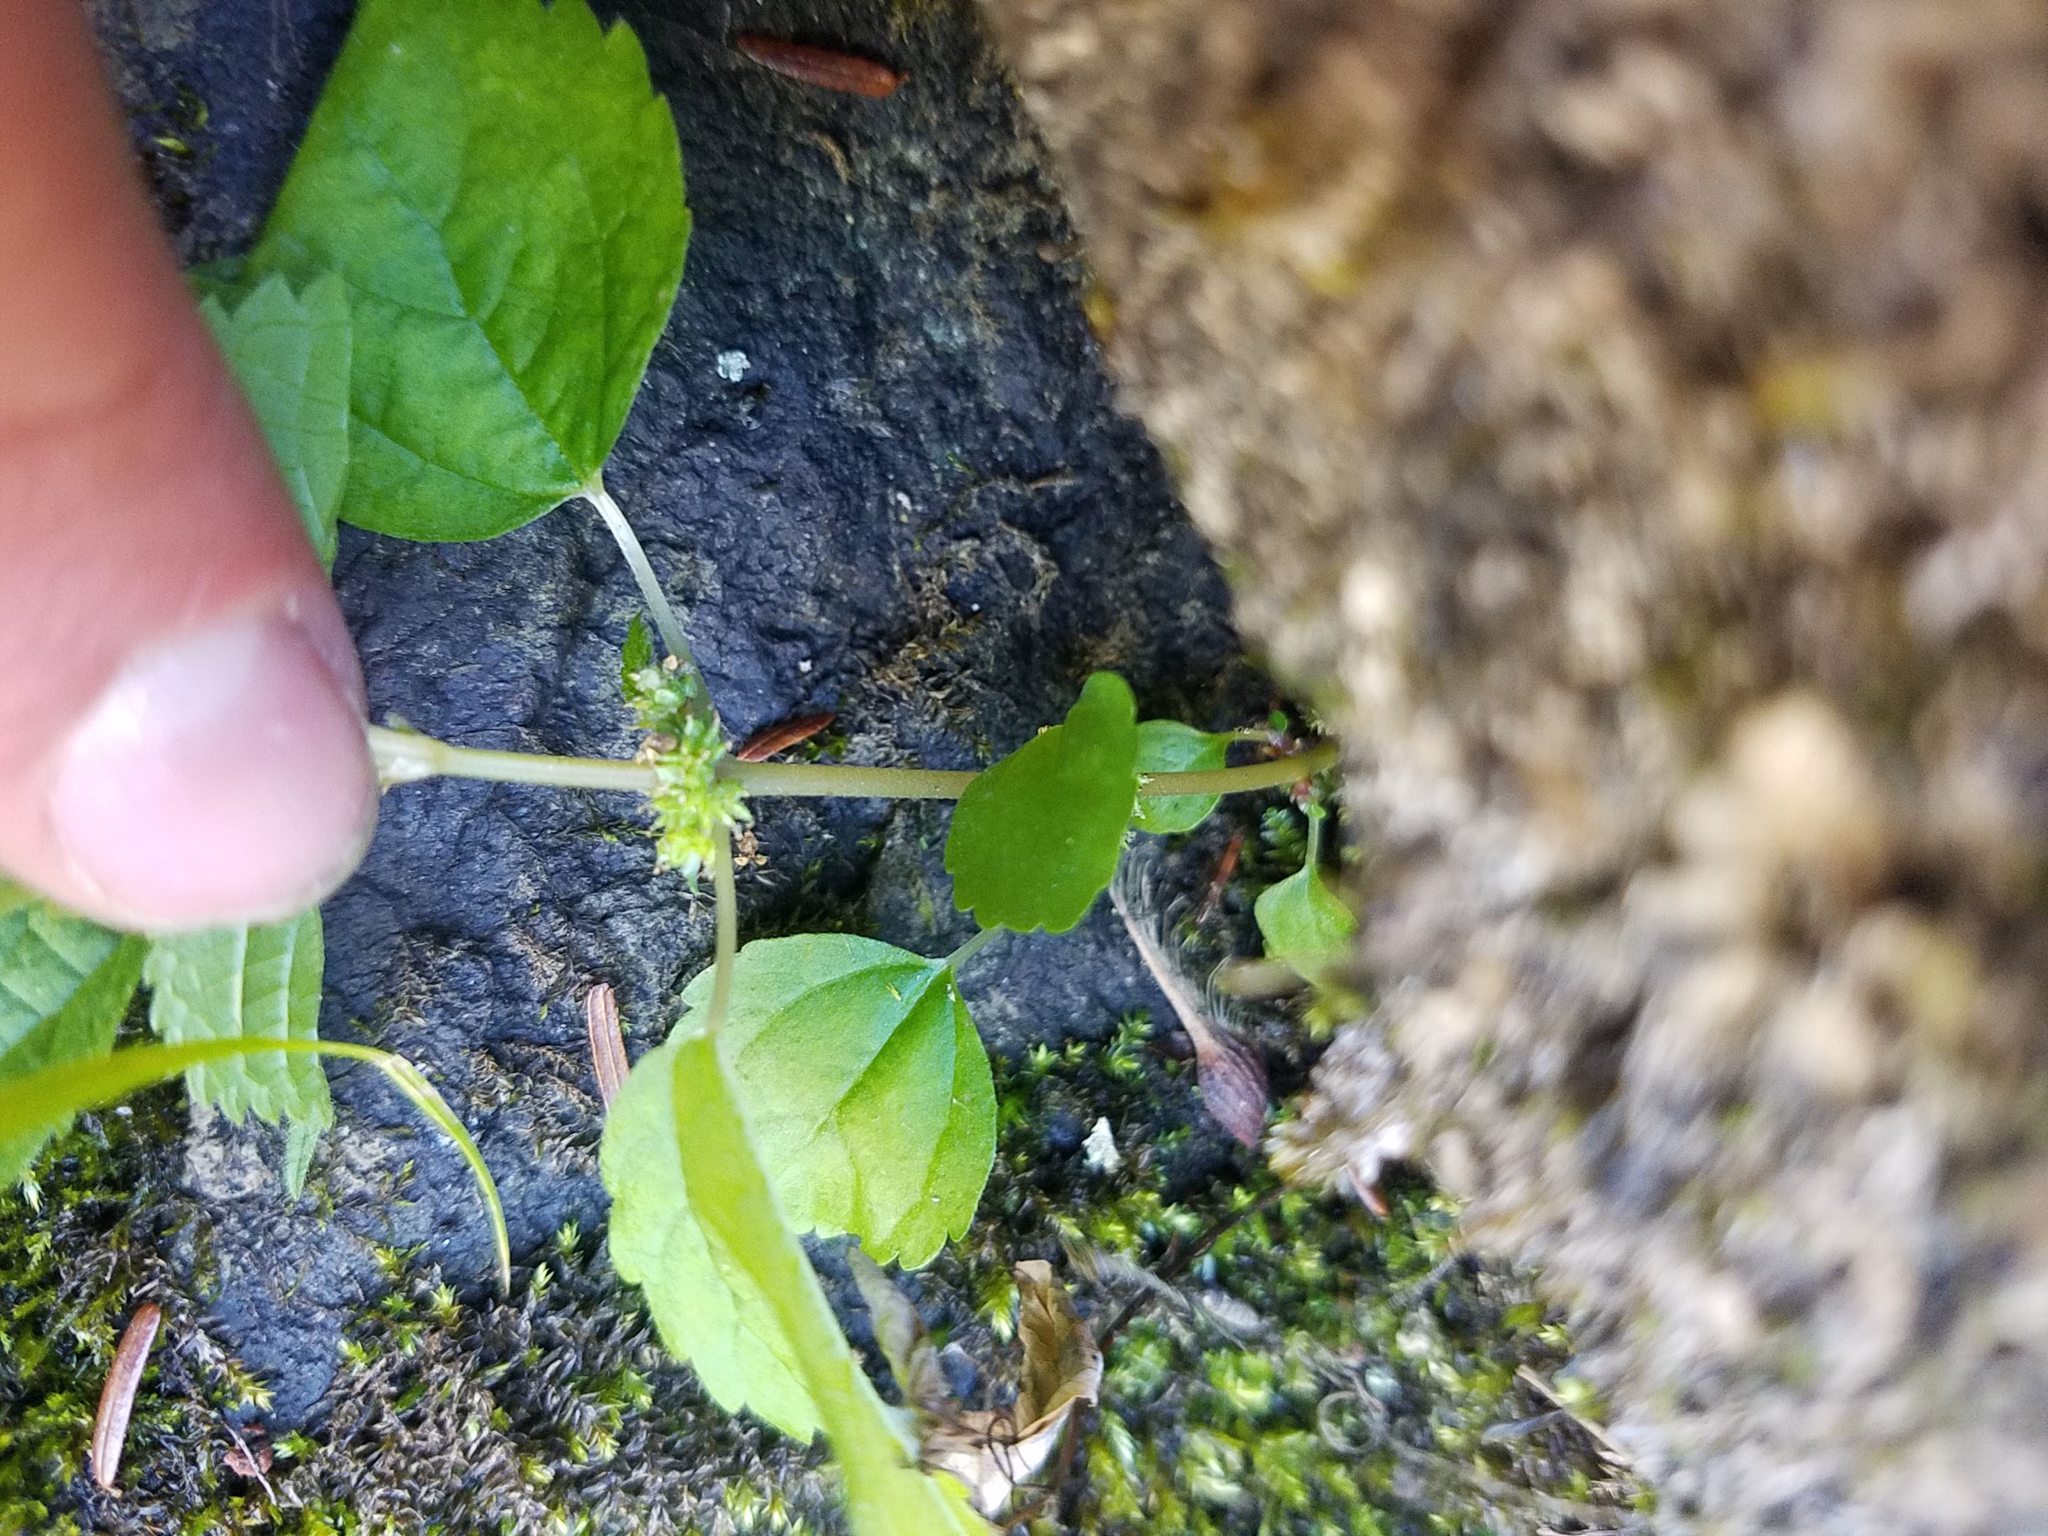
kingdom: Plantae
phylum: Tracheophyta
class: Magnoliopsida
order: Rosales
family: Urticaceae
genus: Pilea
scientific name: Pilea pumila
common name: Clearweed
